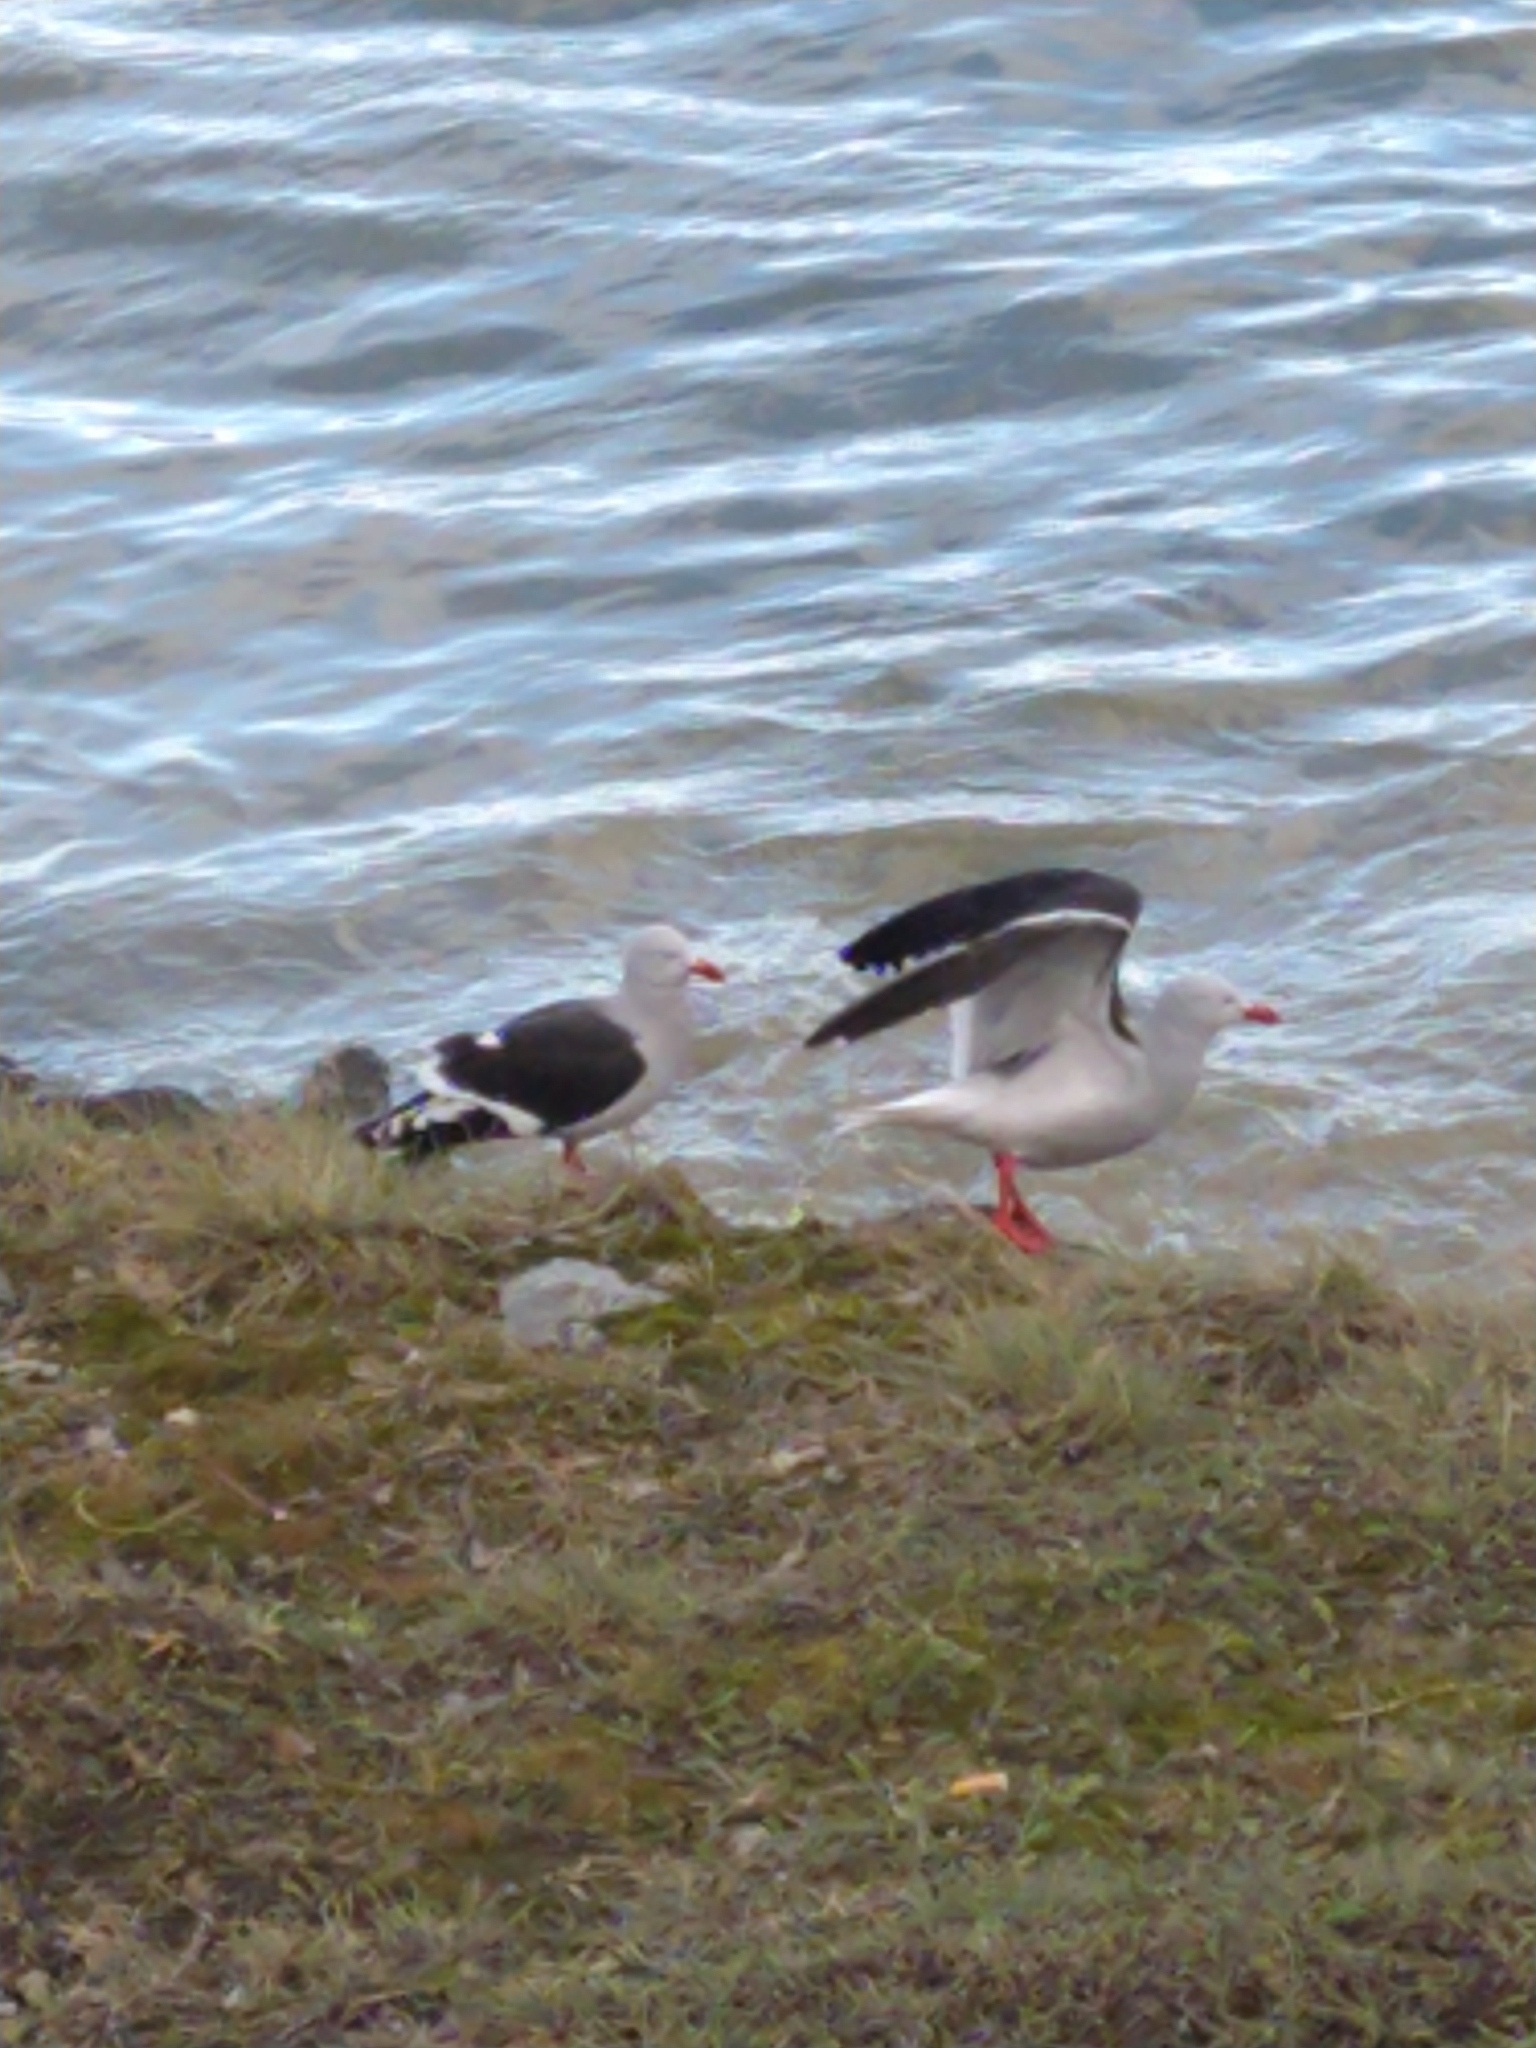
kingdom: Animalia
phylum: Chordata
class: Aves
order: Charadriiformes
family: Laridae
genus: Leucophaeus
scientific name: Leucophaeus scoresbii
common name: Dolphin gull
